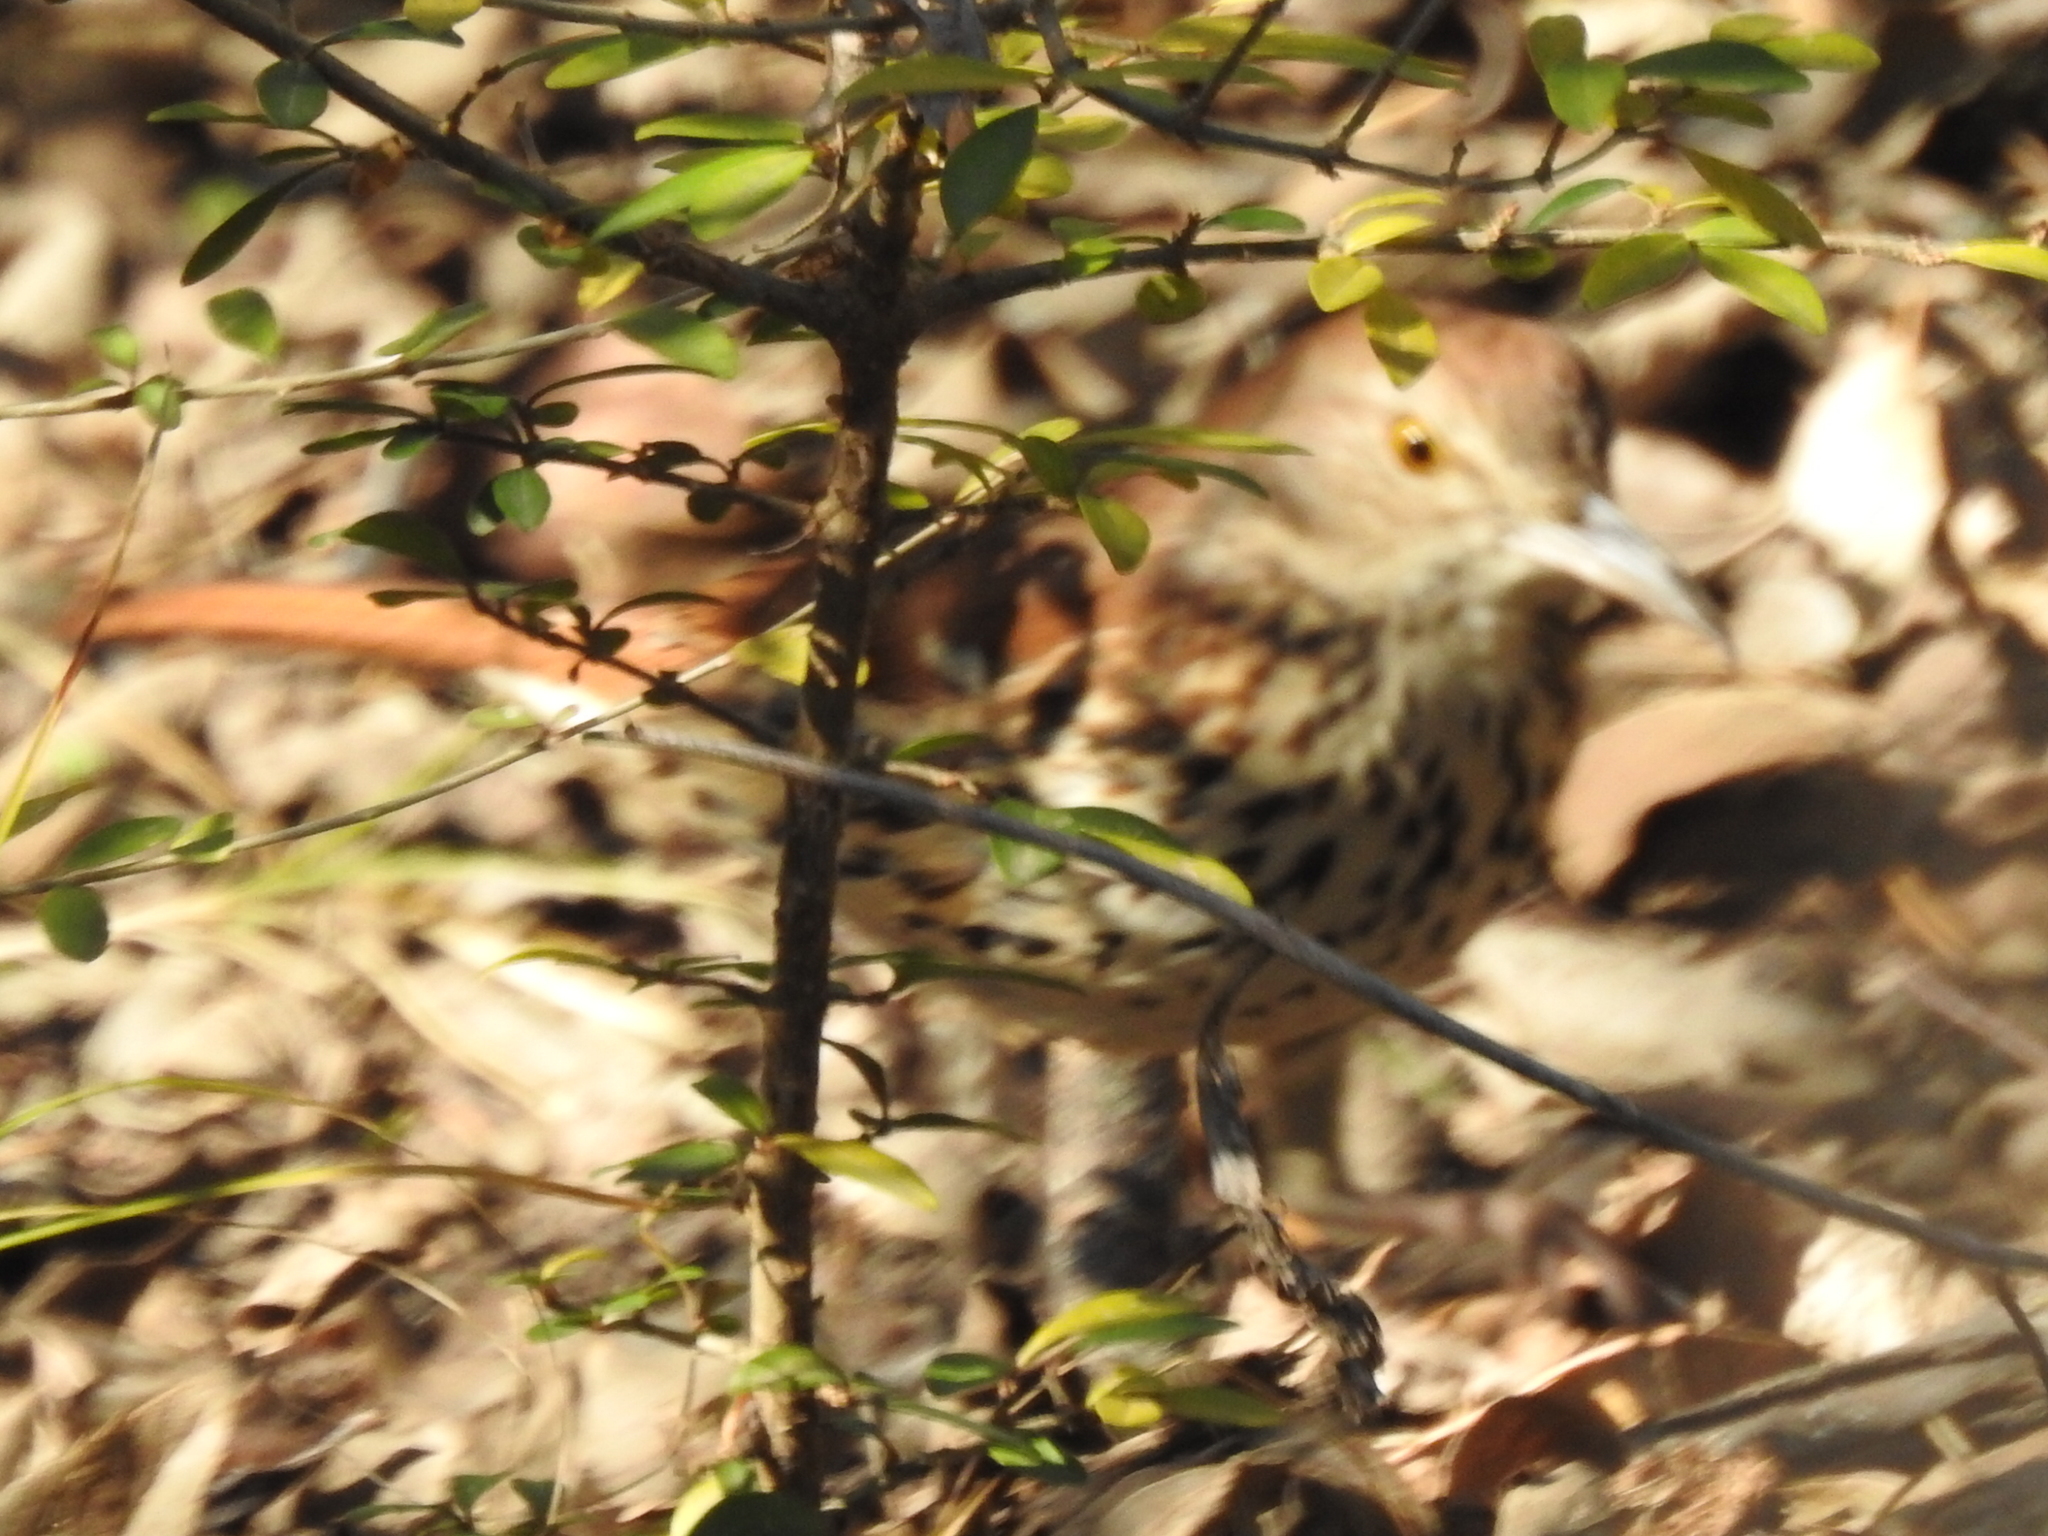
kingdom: Animalia
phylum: Chordata
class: Aves
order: Passeriformes
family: Mimidae
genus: Toxostoma
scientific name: Toxostoma rufum
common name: Brown thrasher
